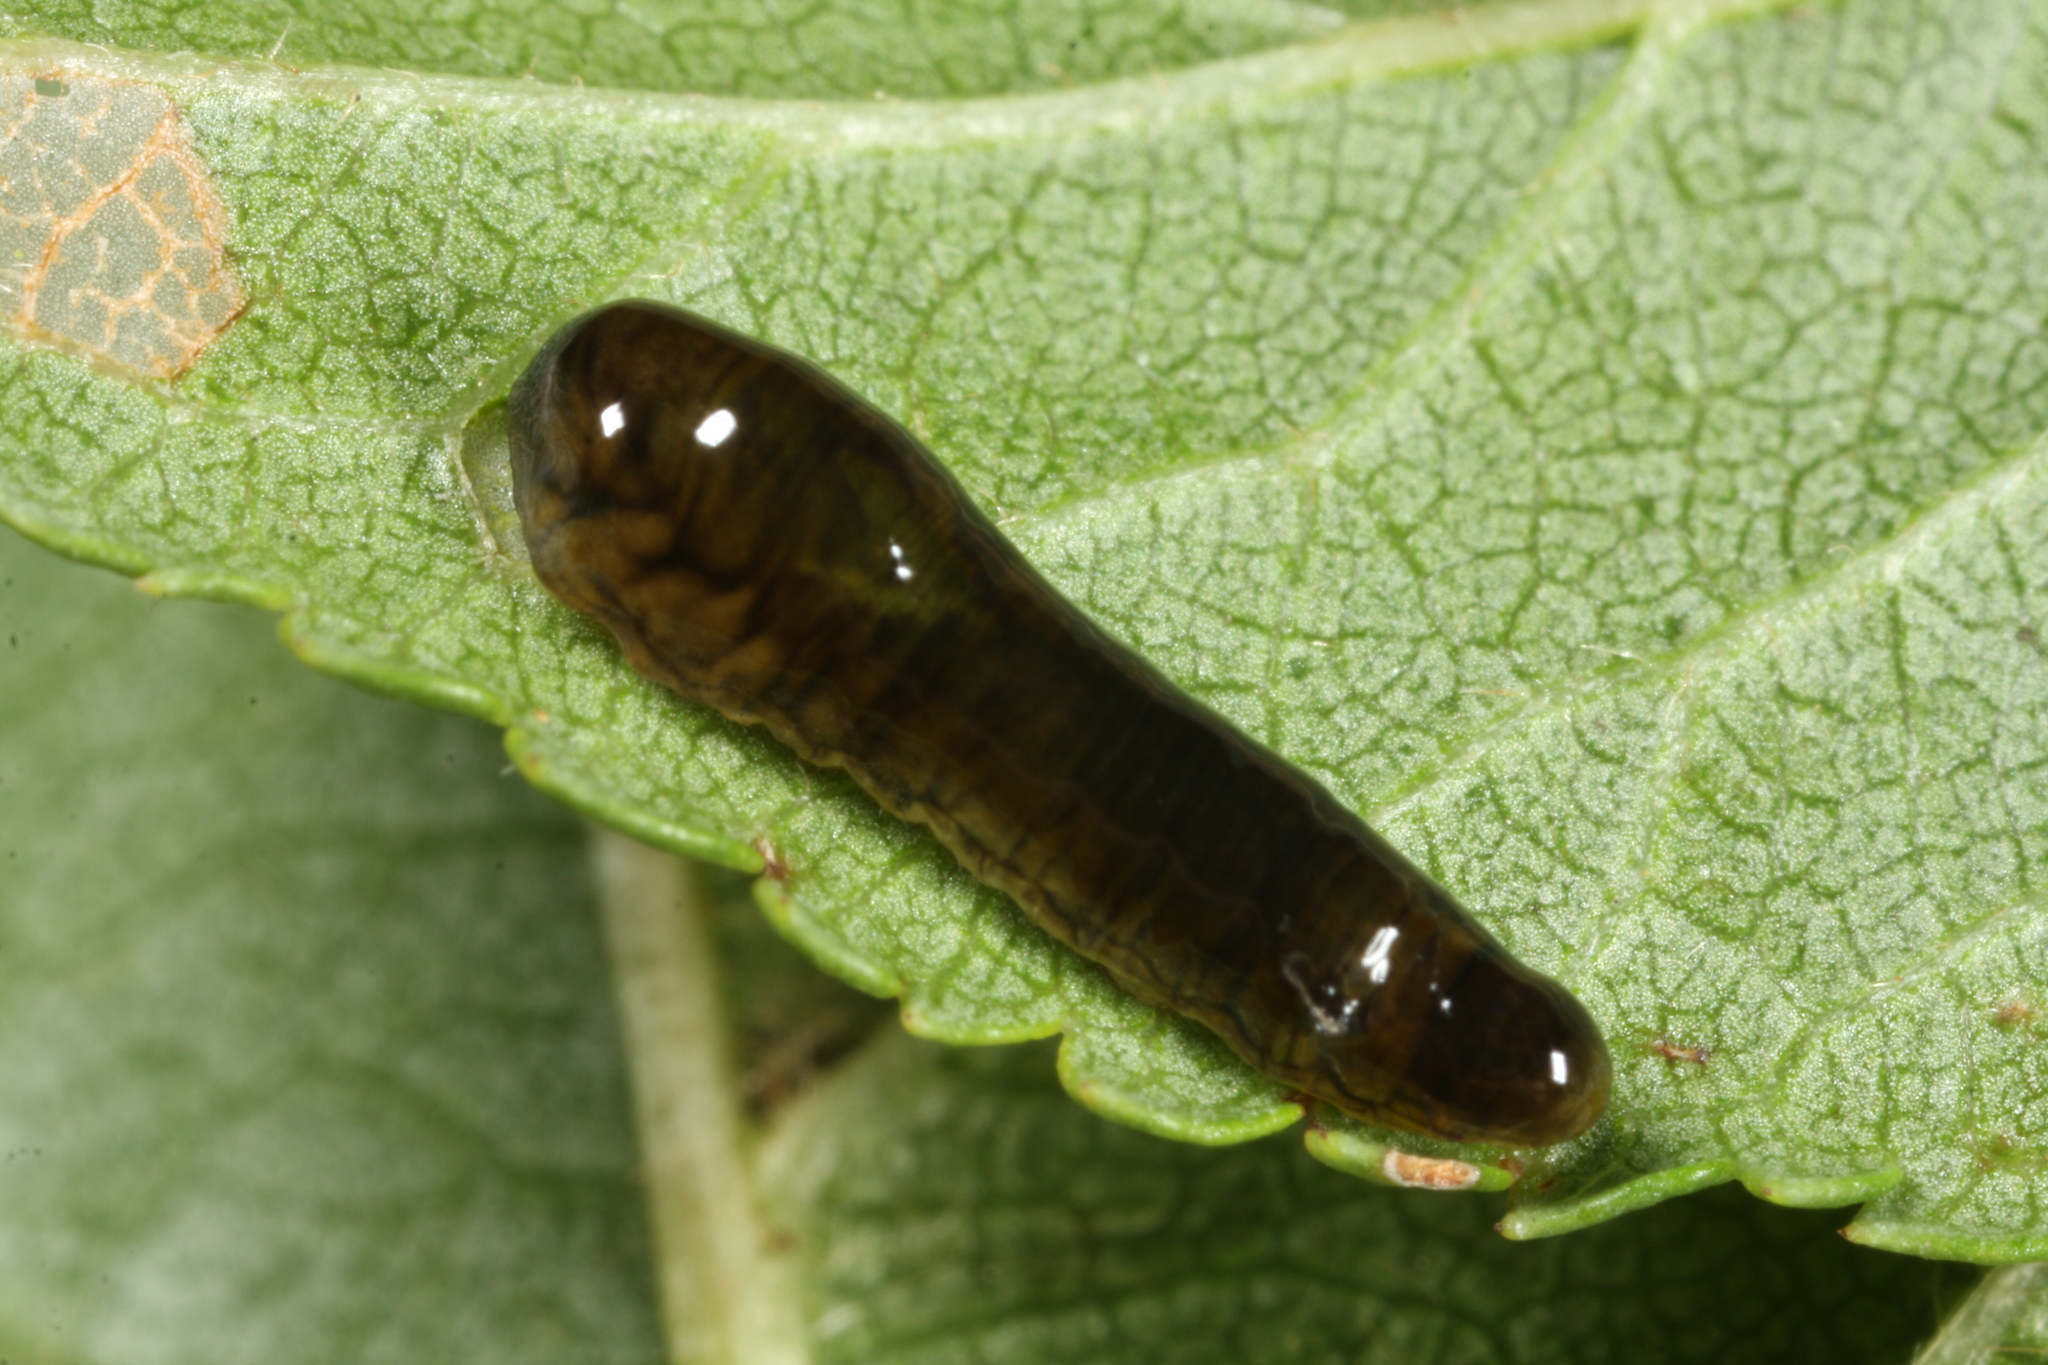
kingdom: Animalia
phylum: Arthropoda
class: Insecta
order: Hymenoptera
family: Tenthredinidae
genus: Caliroa
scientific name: Caliroa cerasi
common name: Pear sawfly
